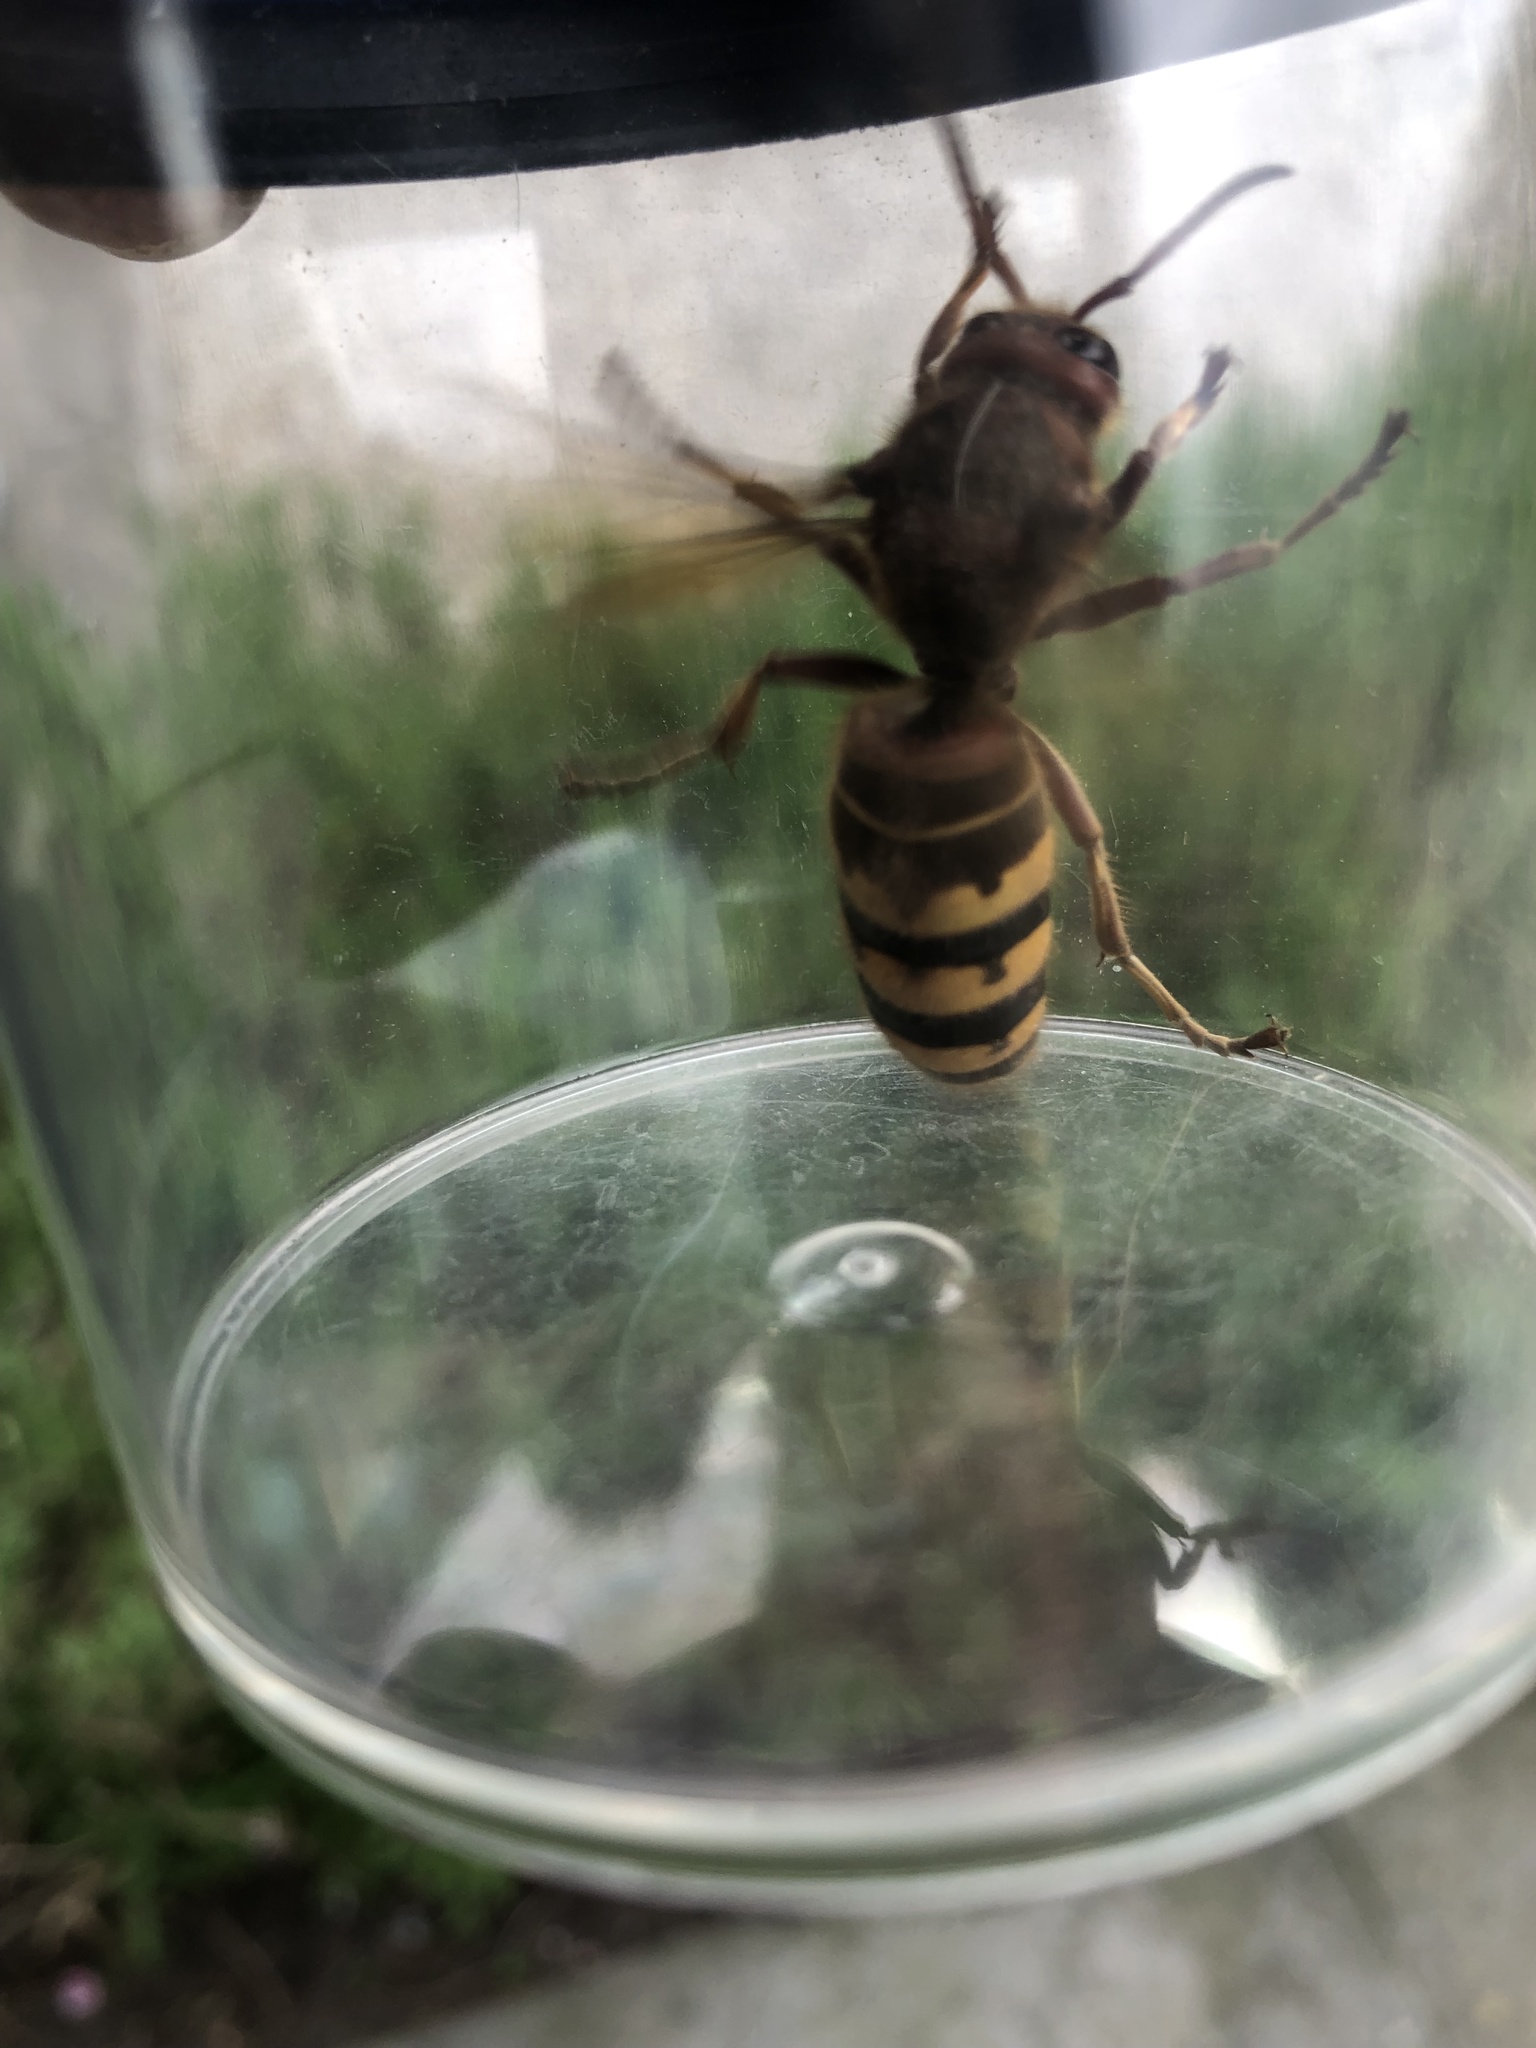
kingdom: Animalia
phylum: Arthropoda
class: Insecta
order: Hymenoptera
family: Vespidae
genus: Vespa
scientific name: Vespa crabro
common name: Hornet
